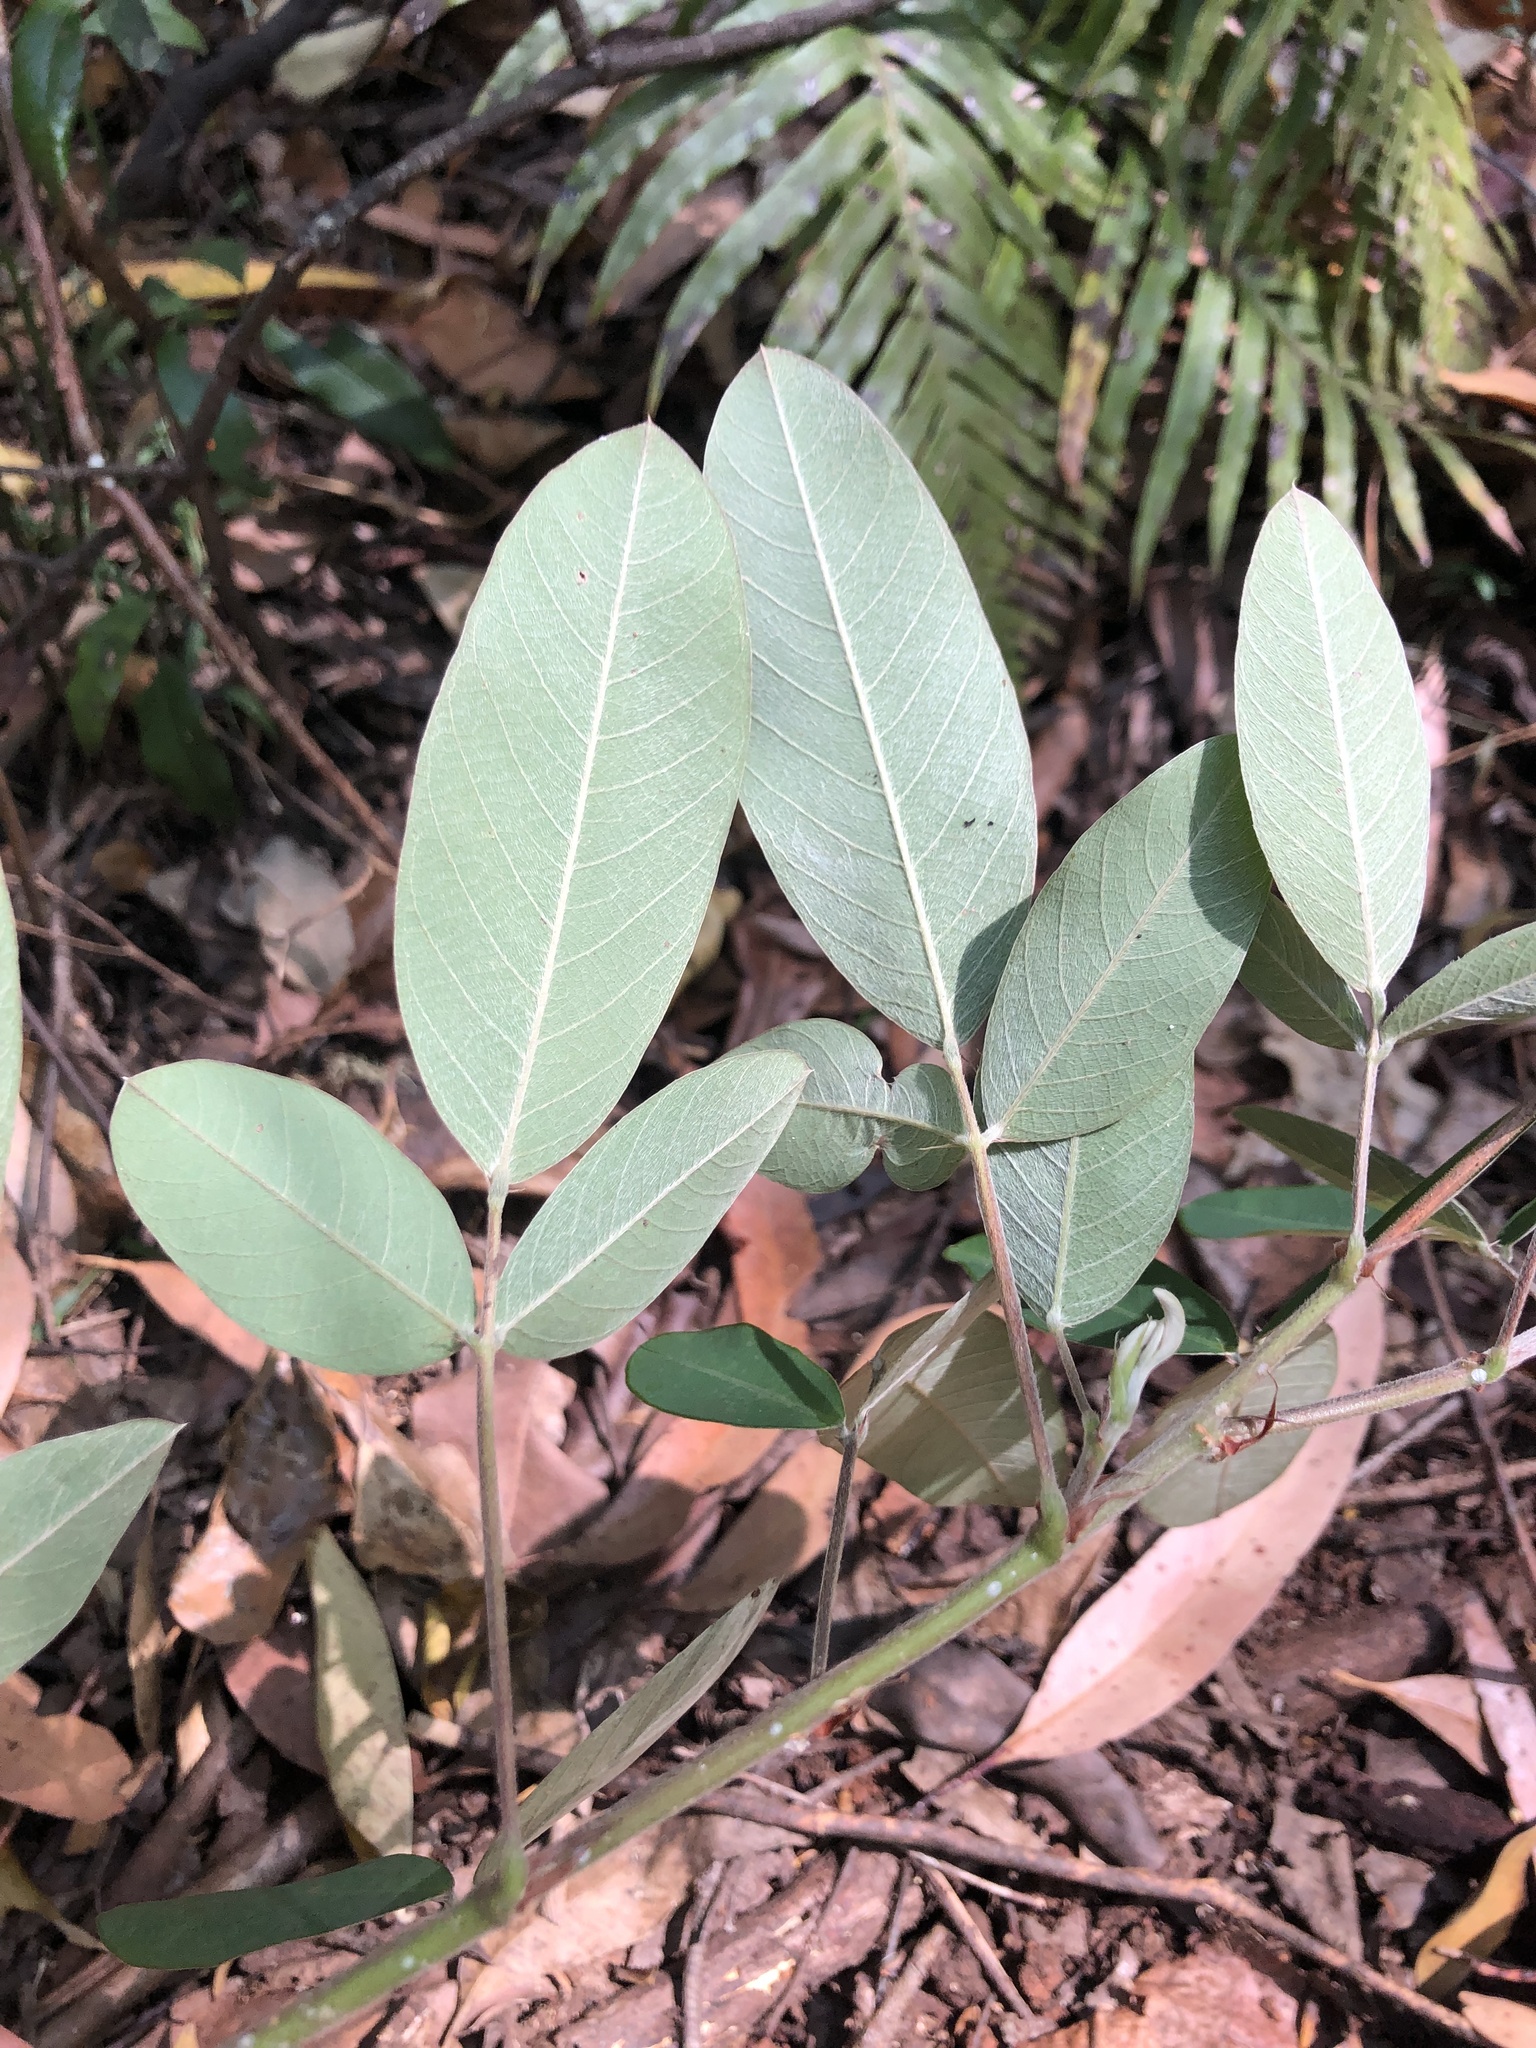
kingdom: Plantae
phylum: Tracheophyta
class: Magnoliopsida
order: Fabales
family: Fabaceae
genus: Grona
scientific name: Grona nemorosa
